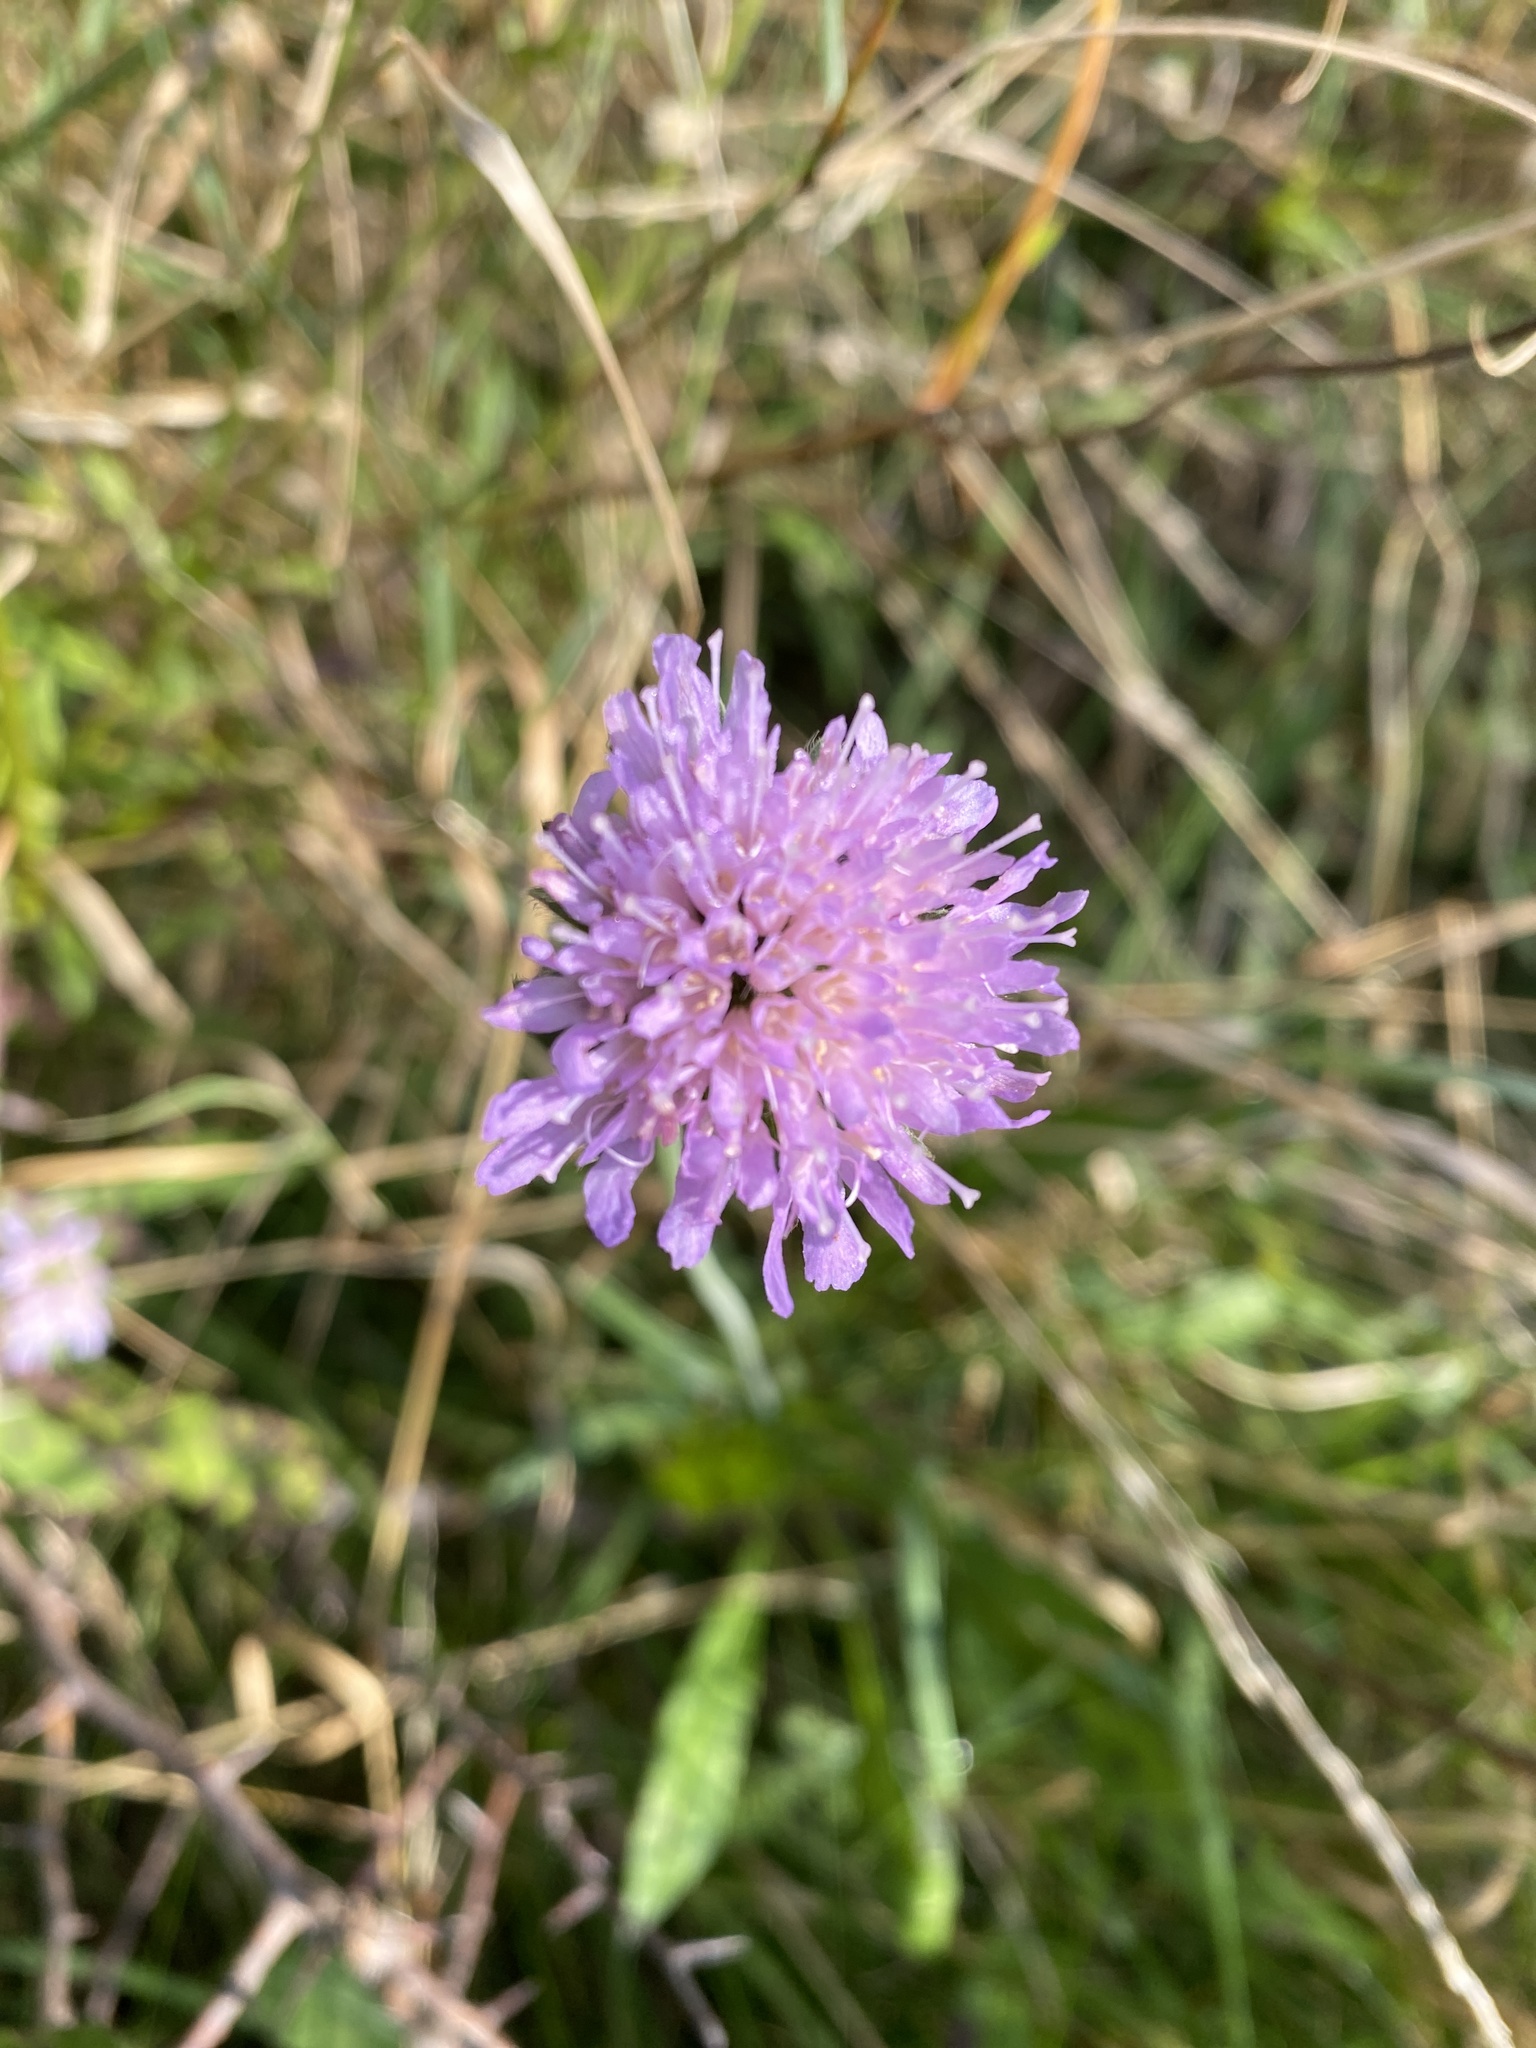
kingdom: Plantae
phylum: Tracheophyta
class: Magnoliopsida
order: Dipsacales
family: Caprifoliaceae
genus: Knautia
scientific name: Knautia arvensis
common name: Field scabiosa
